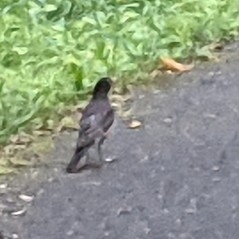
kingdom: Animalia
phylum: Chordata
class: Aves
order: Passeriformes
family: Turdidae
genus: Turdus
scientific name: Turdus migratorius
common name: American robin
